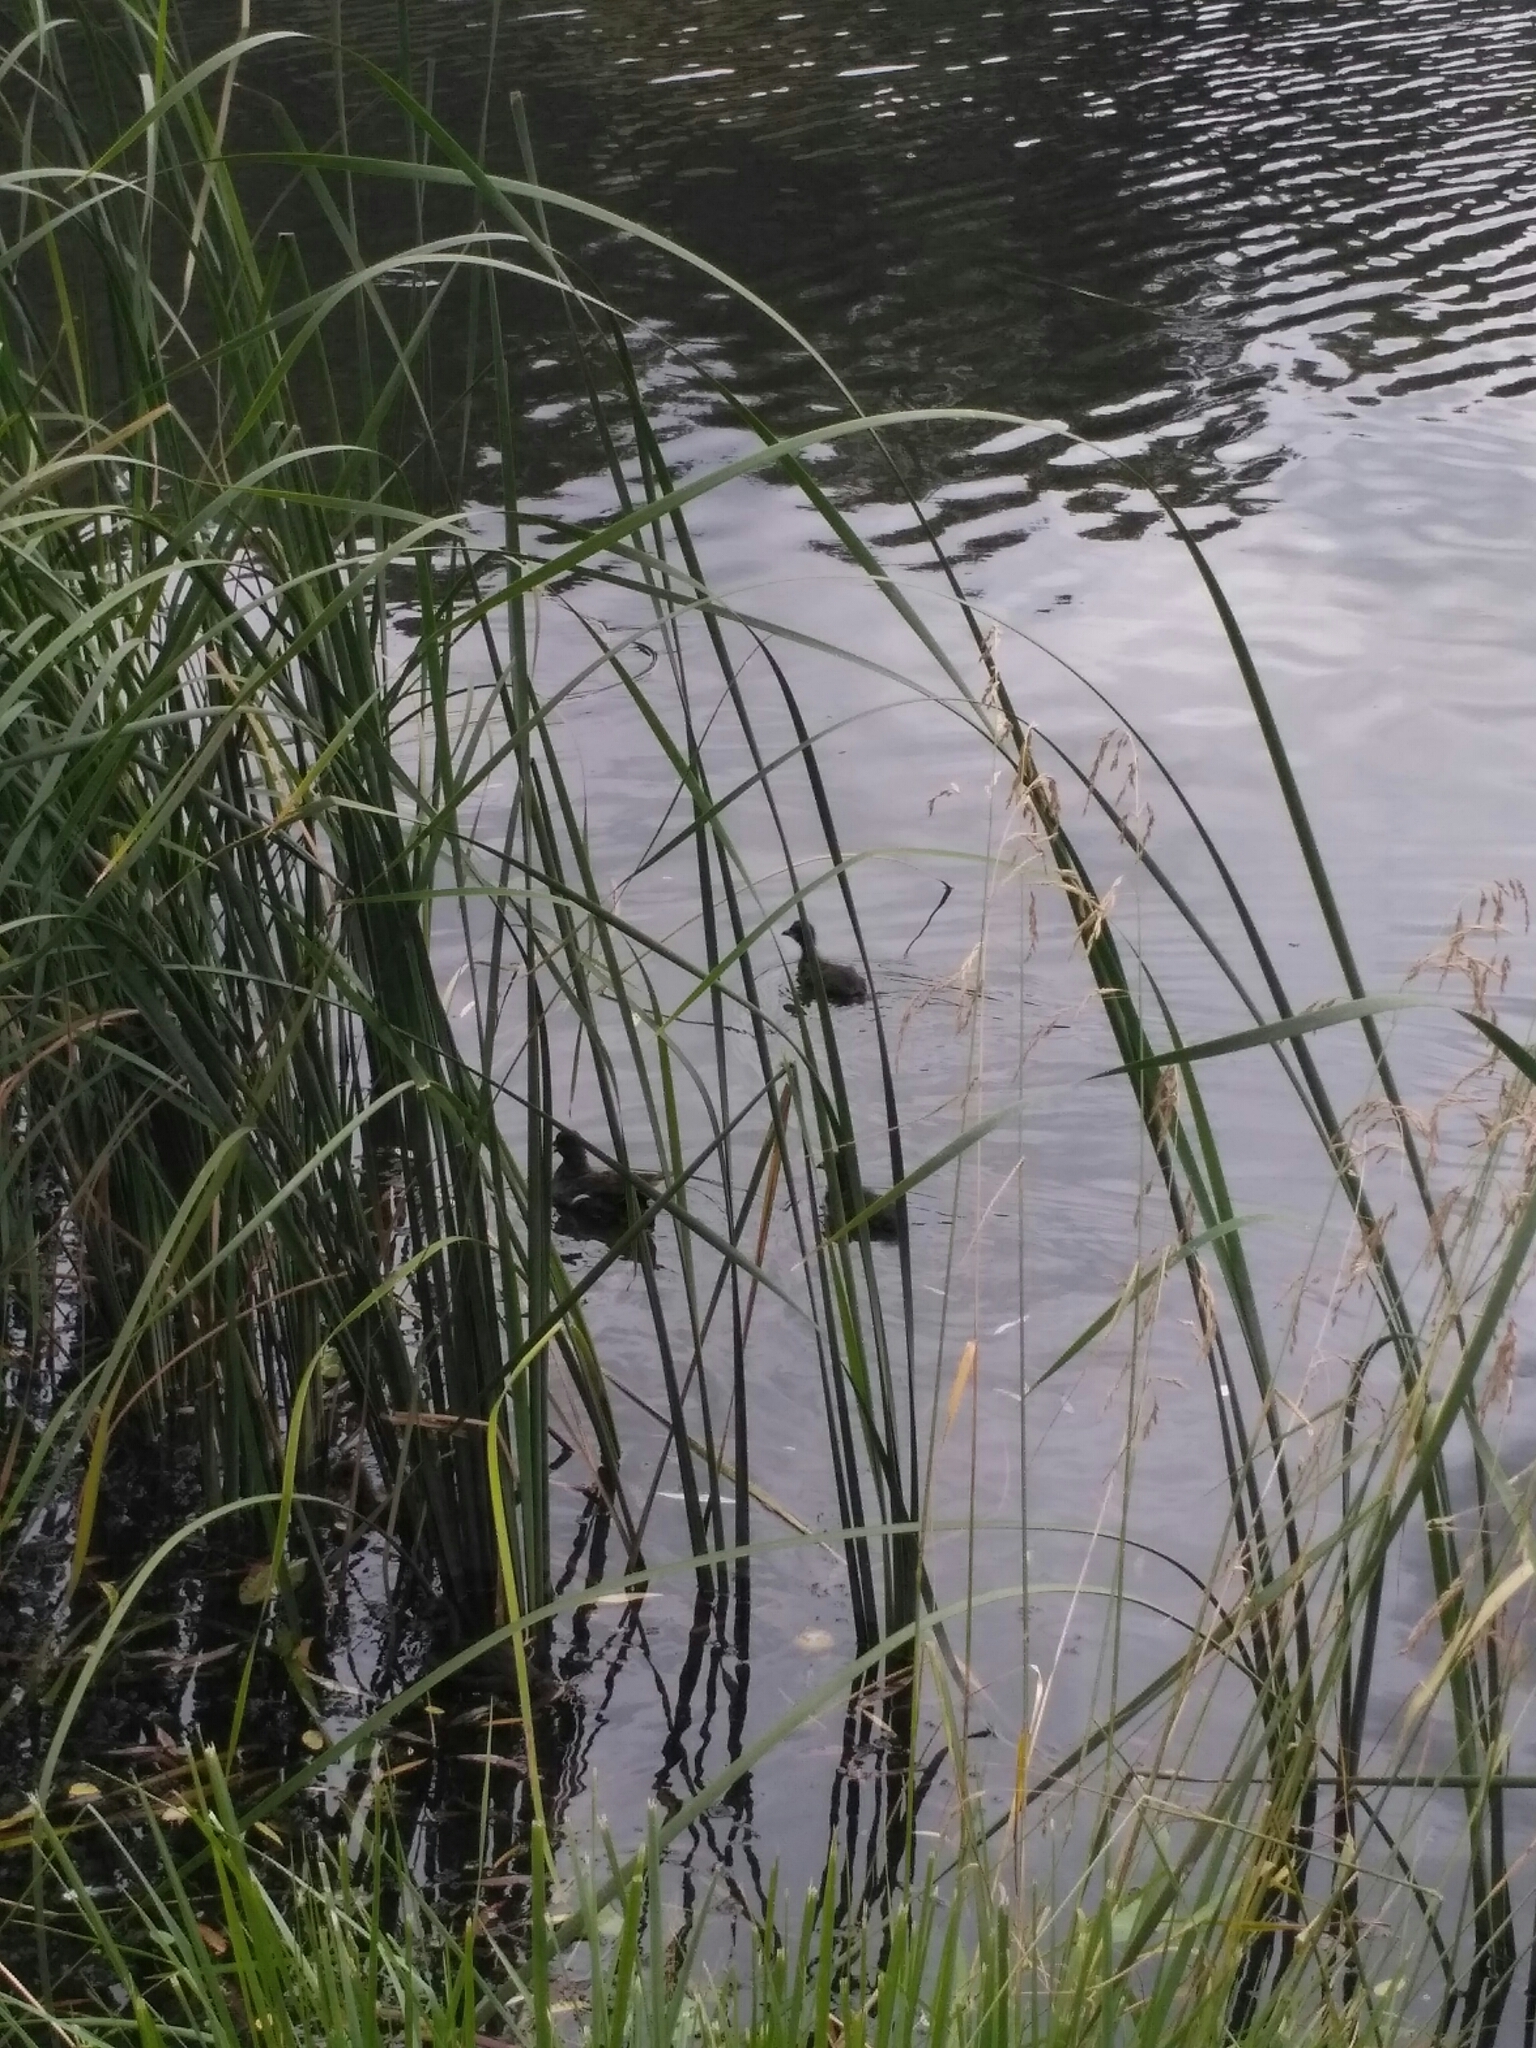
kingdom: Animalia
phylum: Chordata
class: Aves
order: Gruiformes
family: Rallidae
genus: Gallinula
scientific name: Gallinula chloropus
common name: Common moorhen
